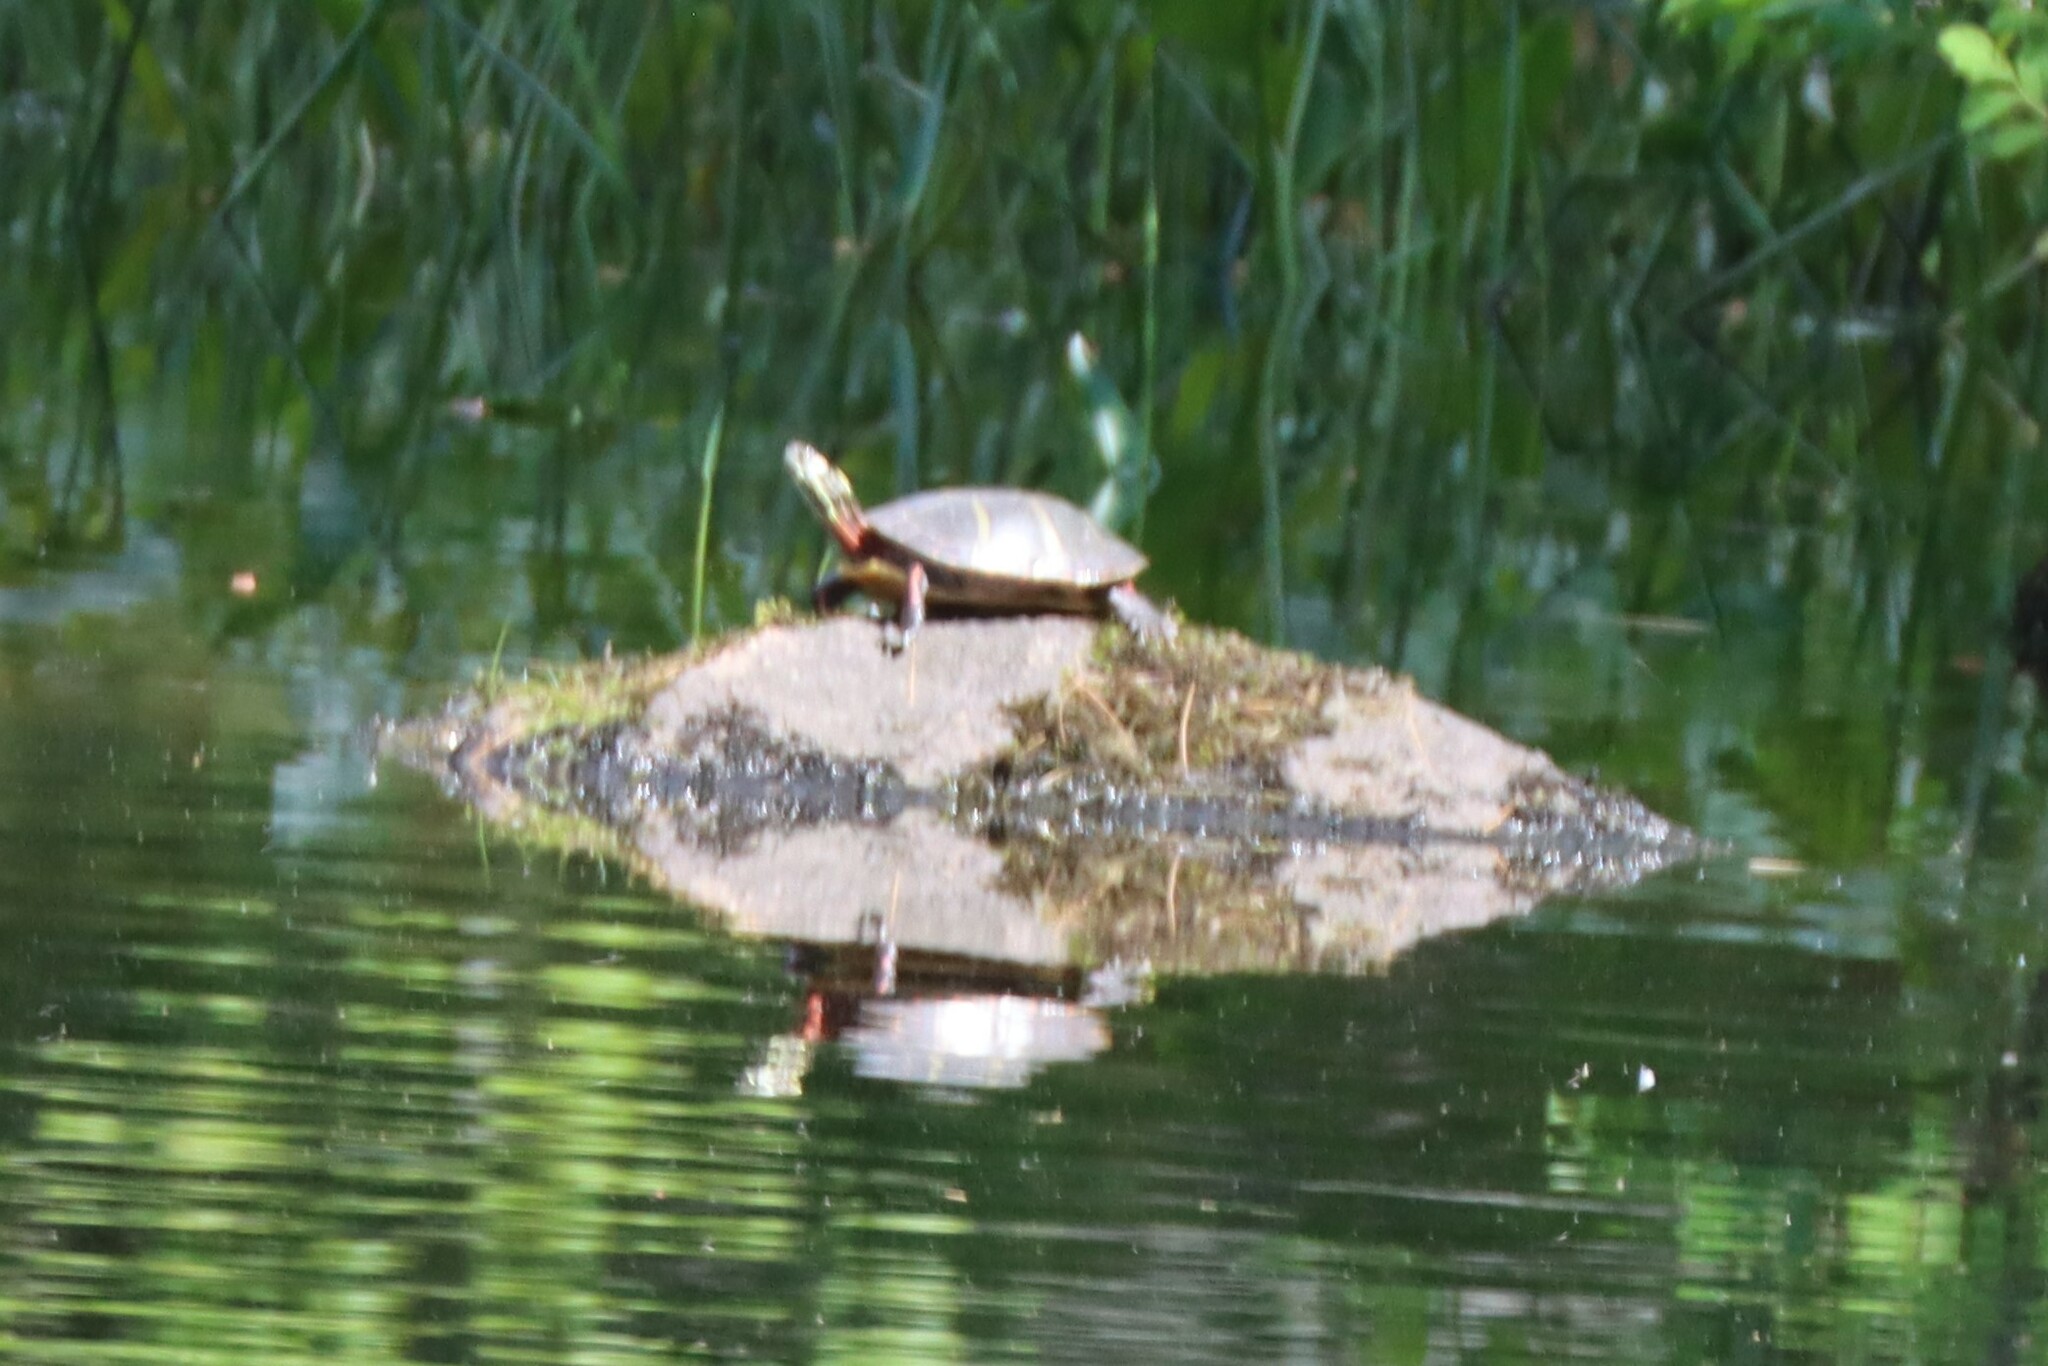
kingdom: Animalia
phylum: Chordata
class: Testudines
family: Emydidae
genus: Chrysemys
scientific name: Chrysemys picta
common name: Painted turtle
